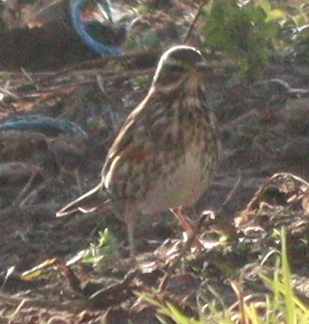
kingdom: Animalia
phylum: Chordata
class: Aves
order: Passeriformes
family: Turdidae
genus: Turdus
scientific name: Turdus iliacus
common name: Redwing
